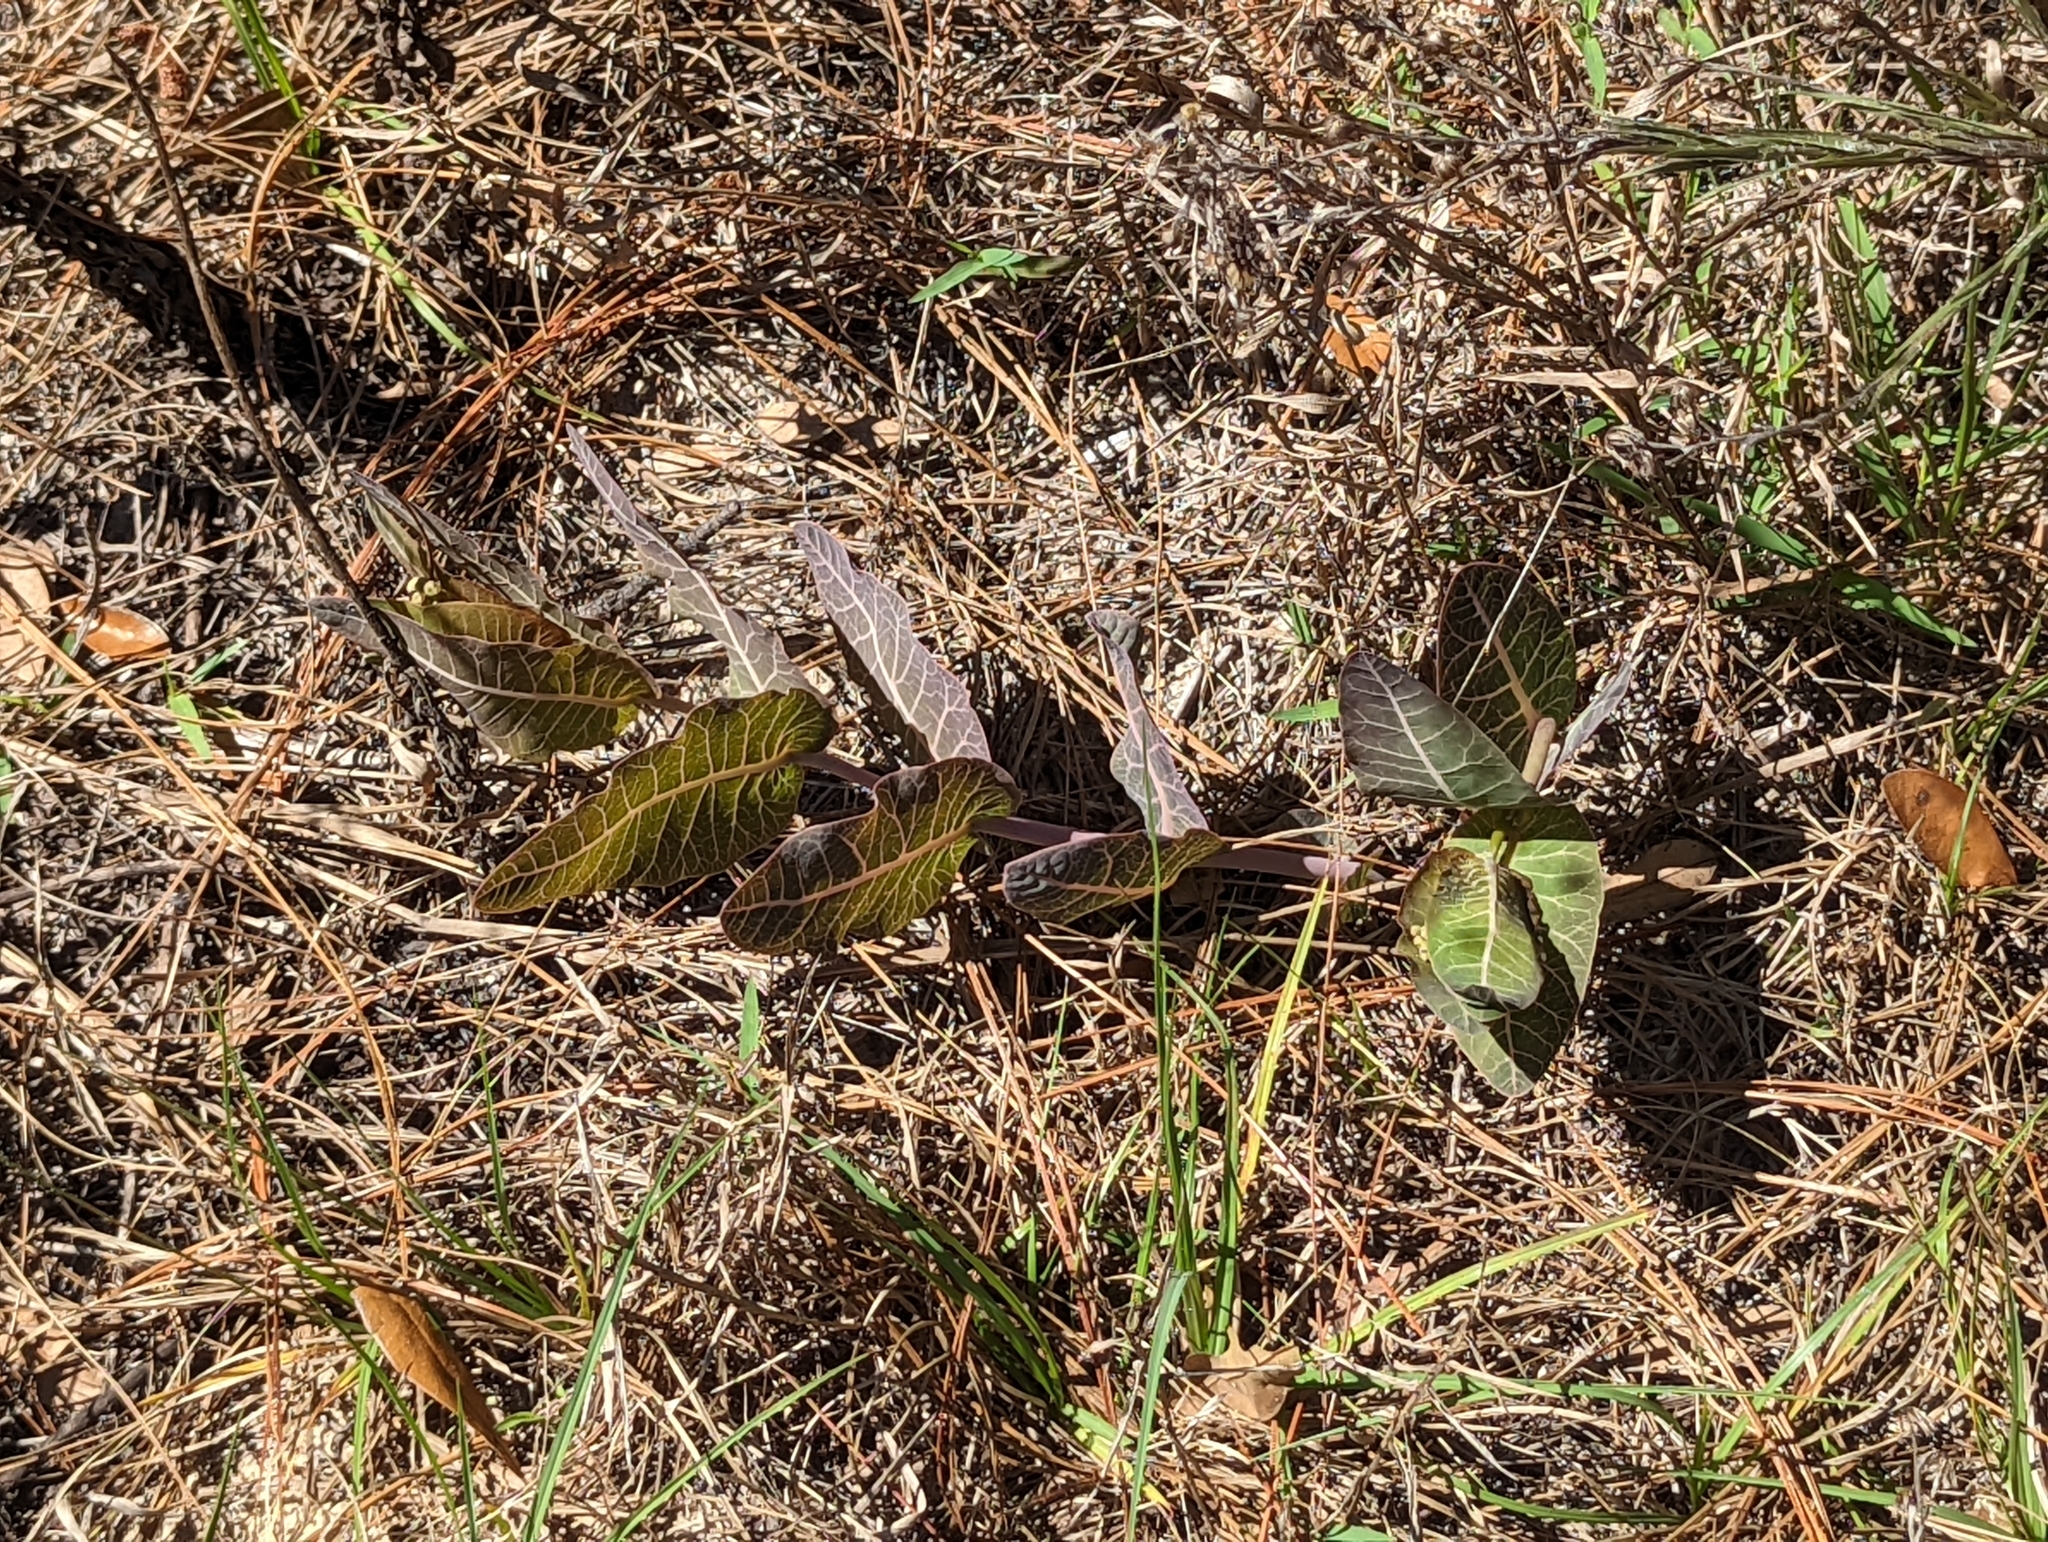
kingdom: Plantae
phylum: Tracheophyta
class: Magnoliopsida
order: Gentianales
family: Apocynaceae
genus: Asclepias
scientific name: Asclepias humistrata
